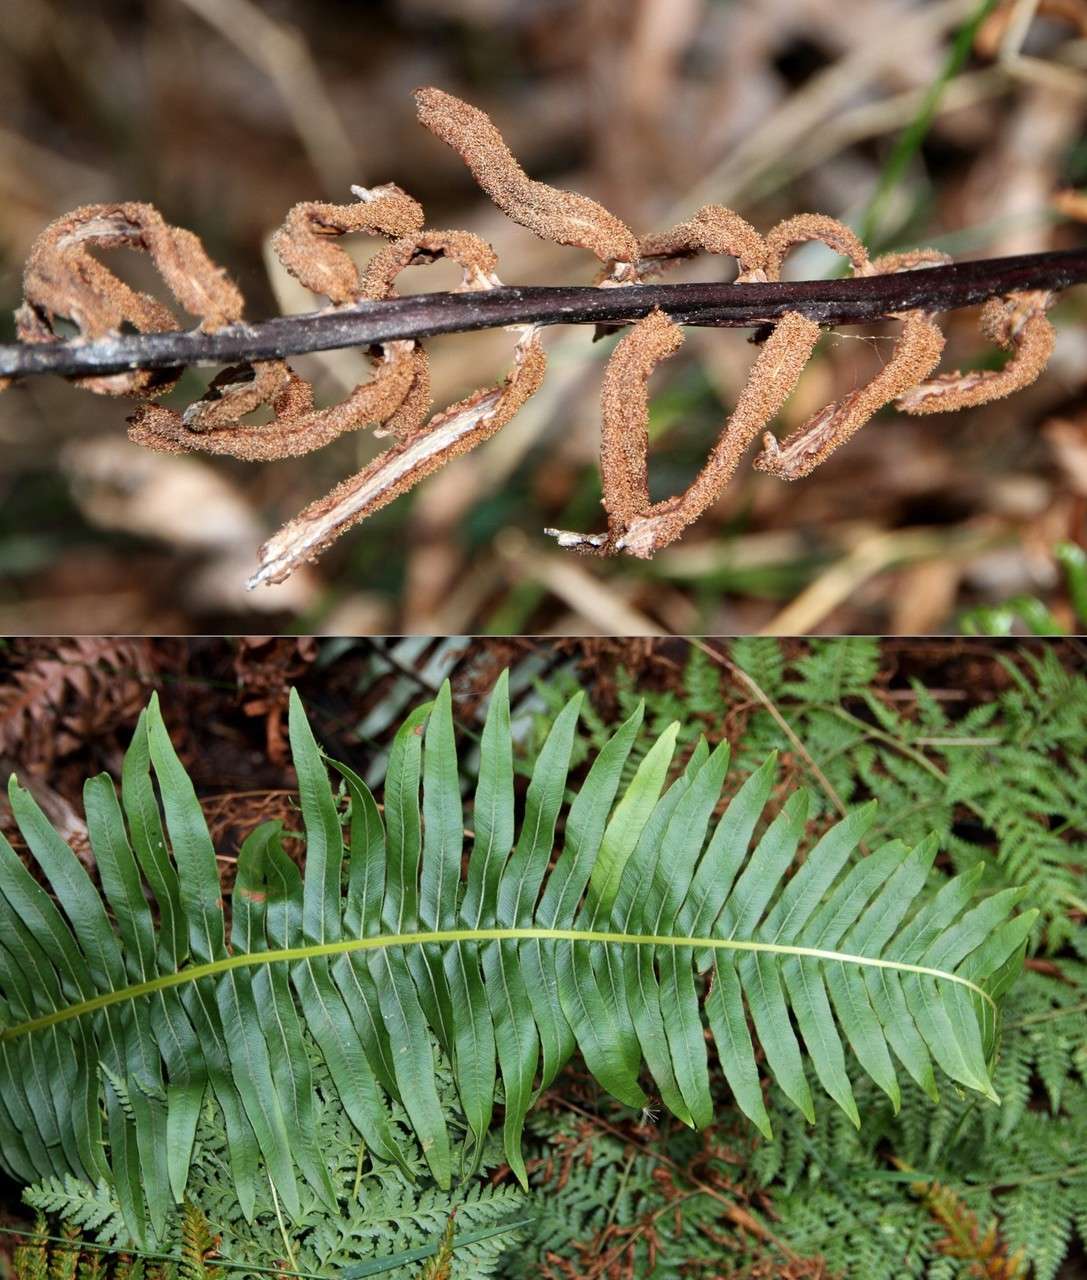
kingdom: Plantae
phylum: Tracheophyta
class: Polypodiopsida
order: Polypodiales
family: Blechnaceae
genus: Lomaria
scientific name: Lomaria nuda
